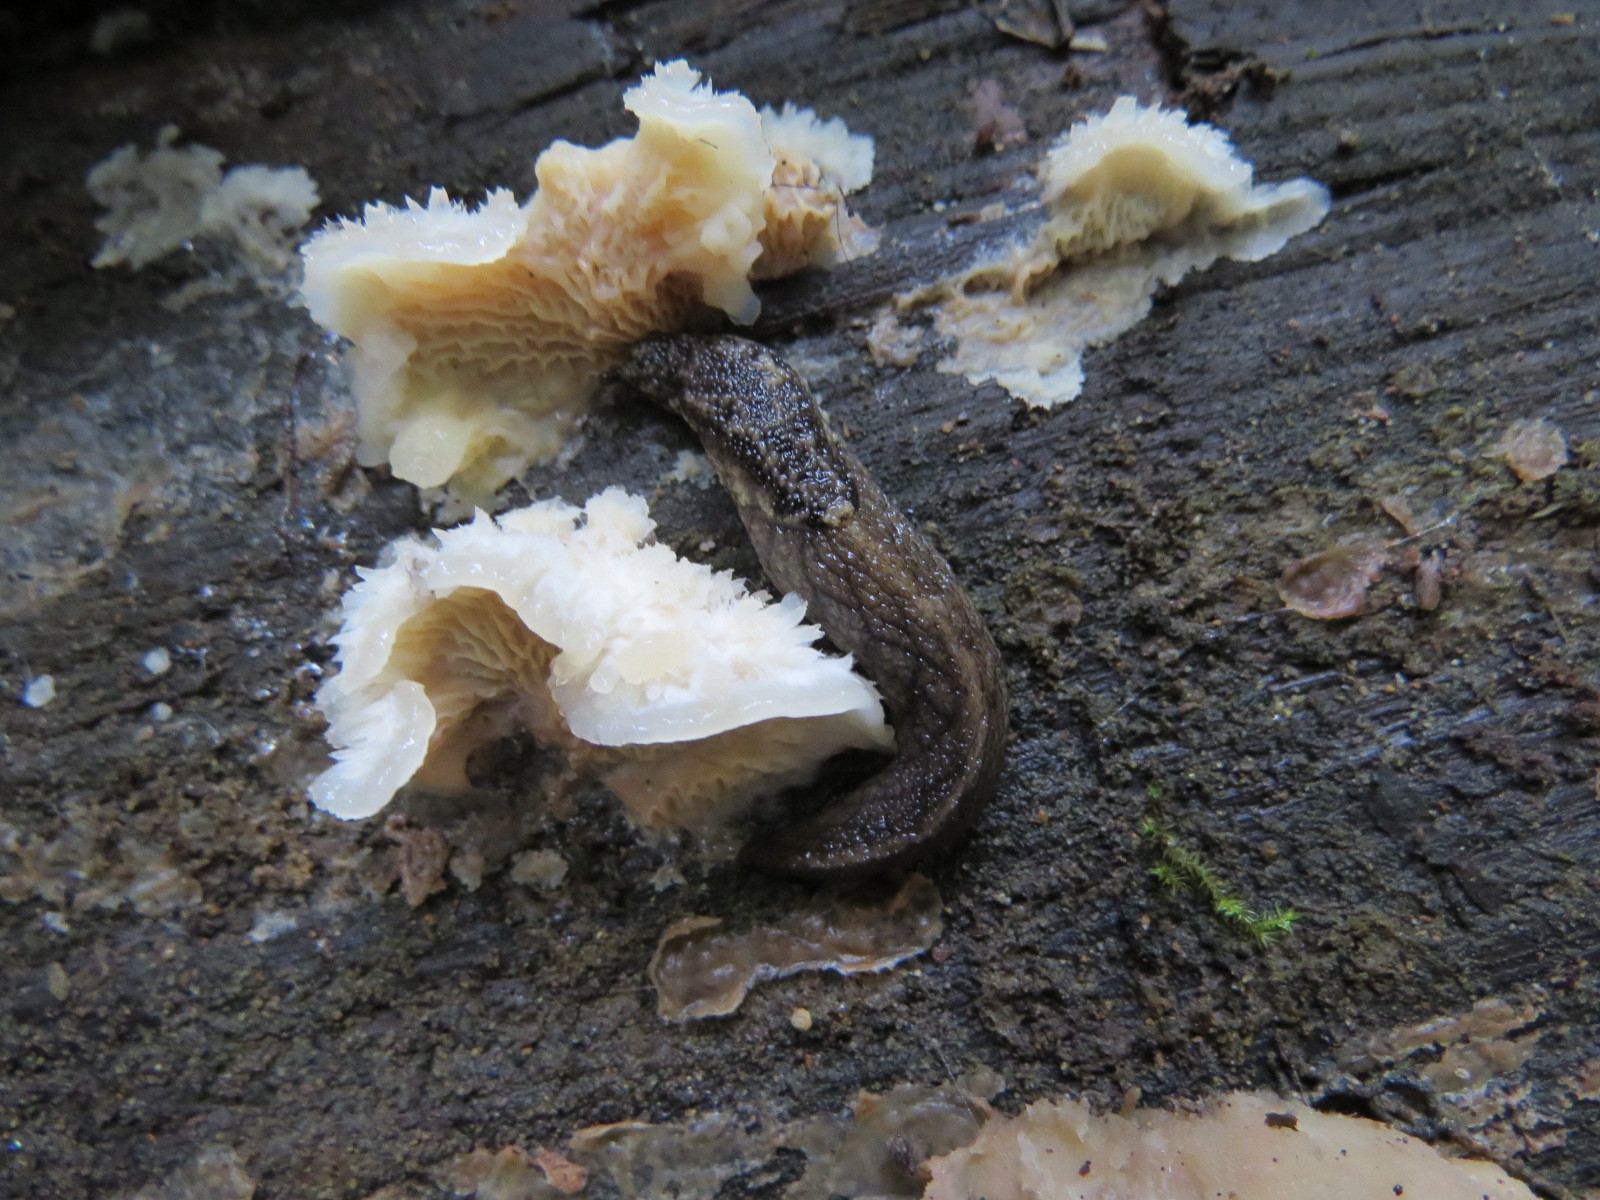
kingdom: Animalia
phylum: Mollusca
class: Gastropoda
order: Stylommatophora
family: Ariolimacidae
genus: Prophysaon
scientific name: Prophysaon andersonii
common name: Reticulate taildropper
